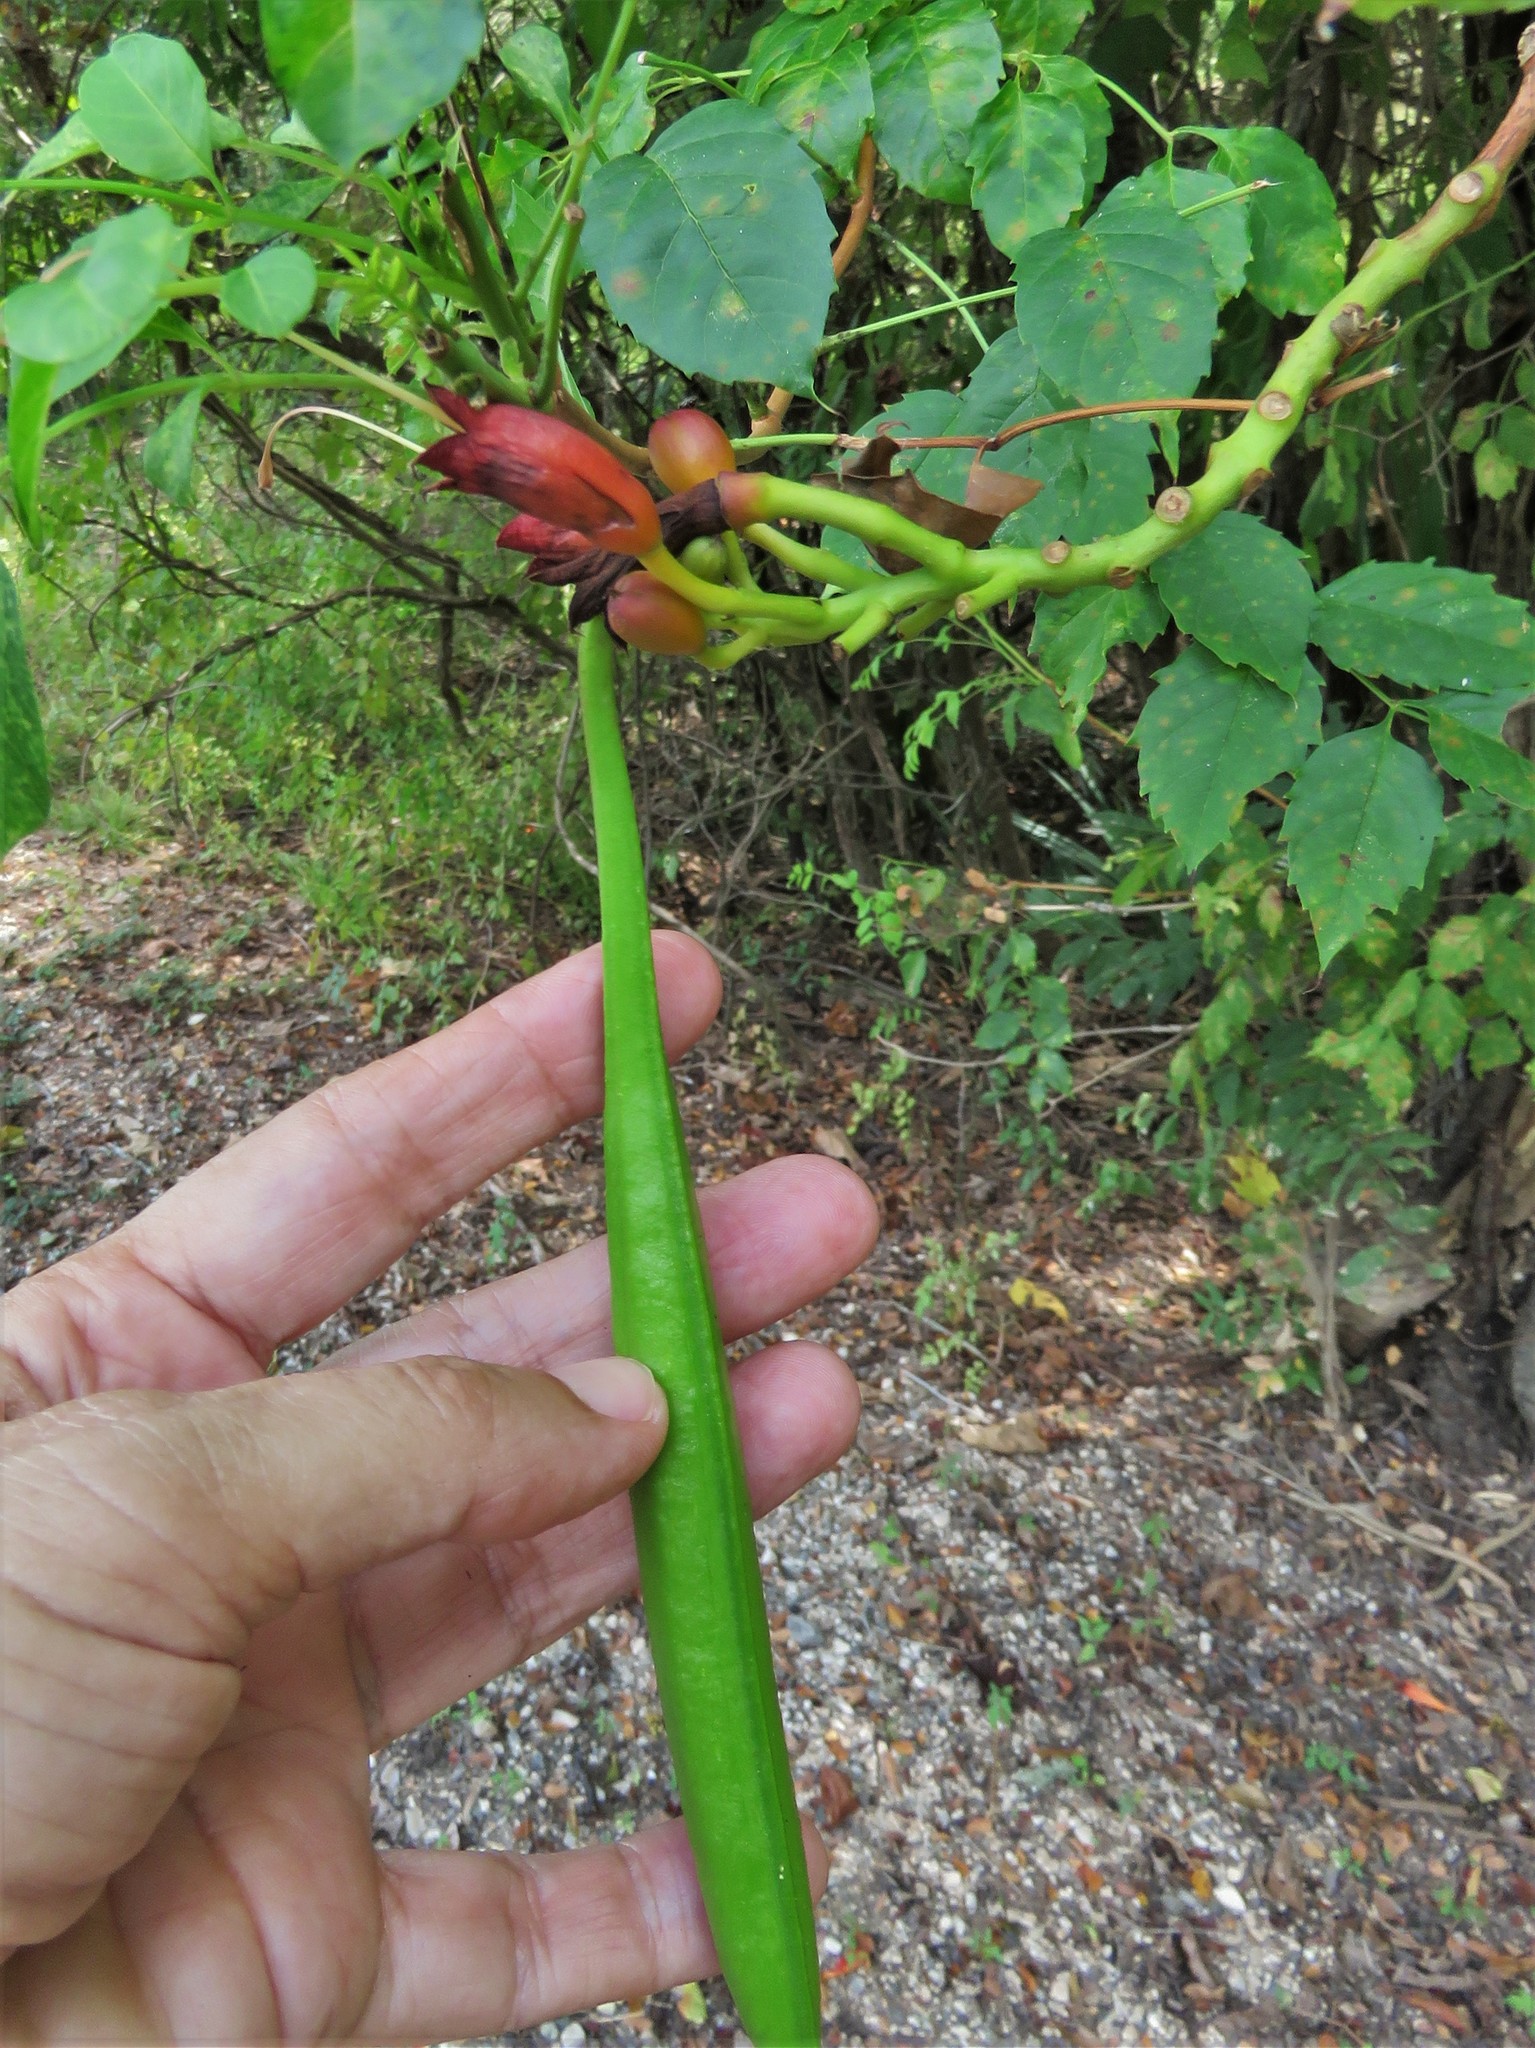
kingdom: Plantae
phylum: Tracheophyta
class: Magnoliopsida
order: Lamiales
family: Bignoniaceae
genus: Campsis
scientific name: Campsis radicans
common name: Trumpet-creeper
